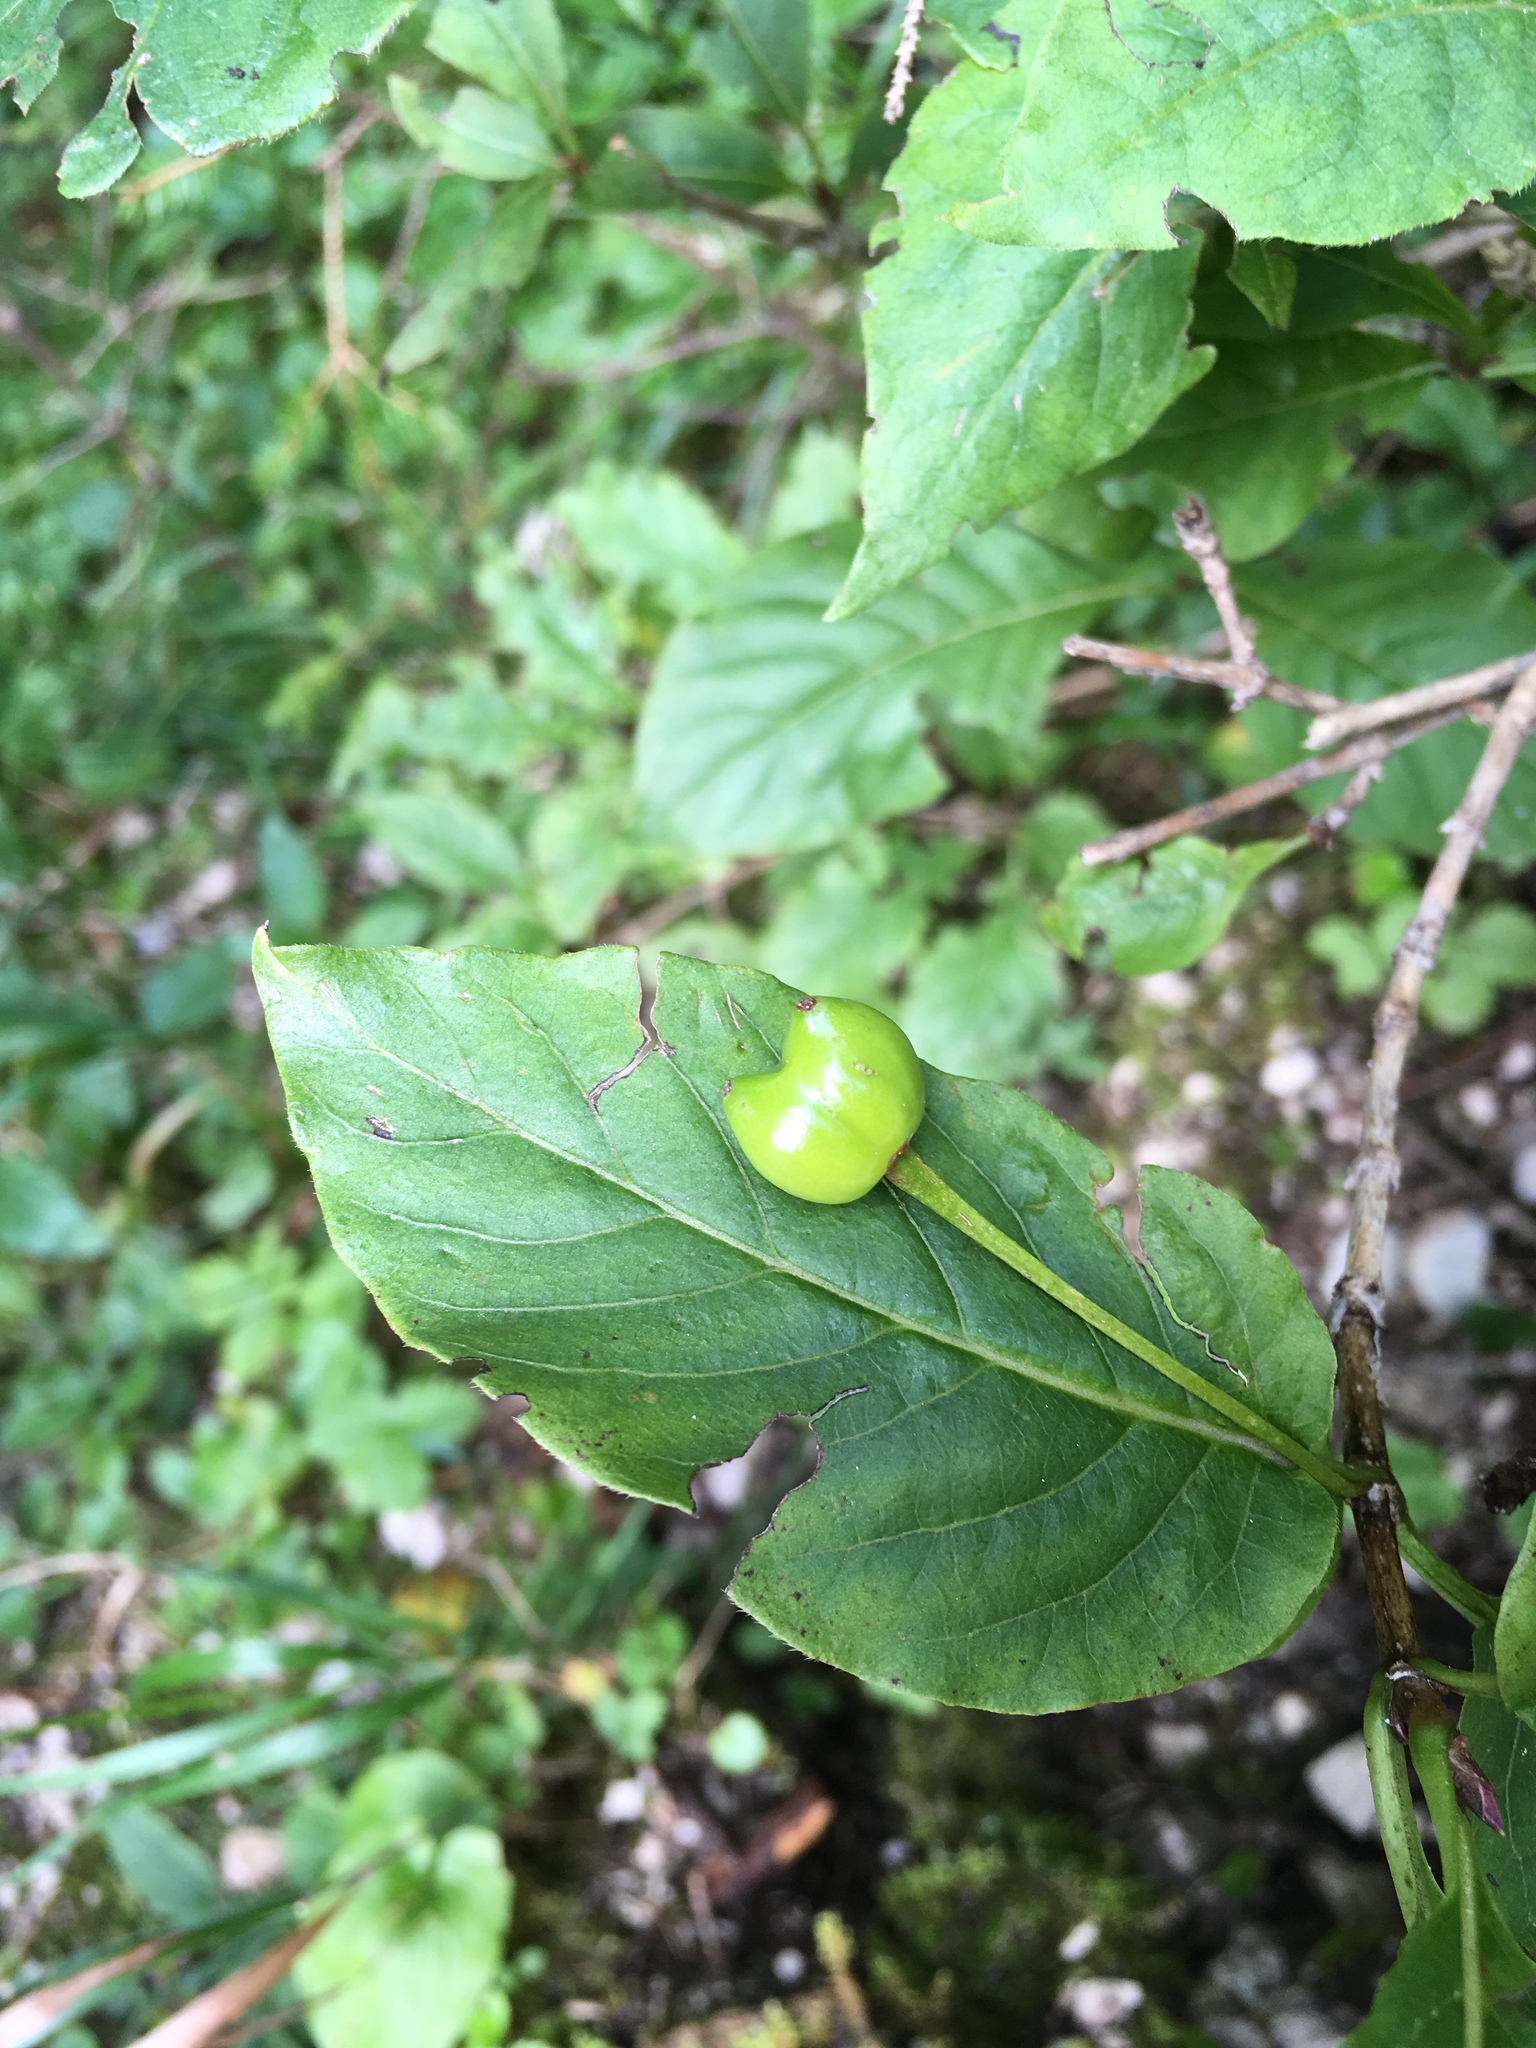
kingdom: Plantae
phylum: Tracheophyta
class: Magnoliopsida
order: Dipsacales
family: Caprifoliaceae
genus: Lonicera
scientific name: Lonicera alpigena
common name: Alpine honeysuckle
